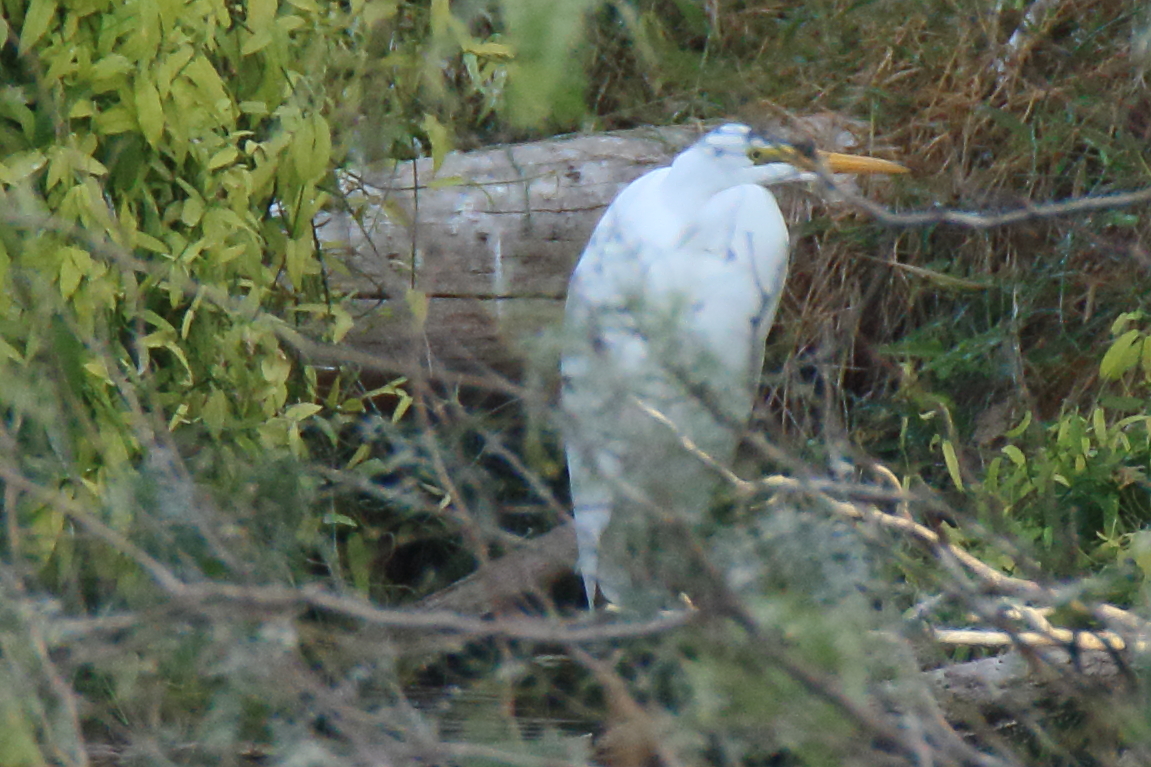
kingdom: Animalia
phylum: Chordata
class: Aves
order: Pelecaniformes
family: Ardeidae
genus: Ardea
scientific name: Ardea alba
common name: Great egret
